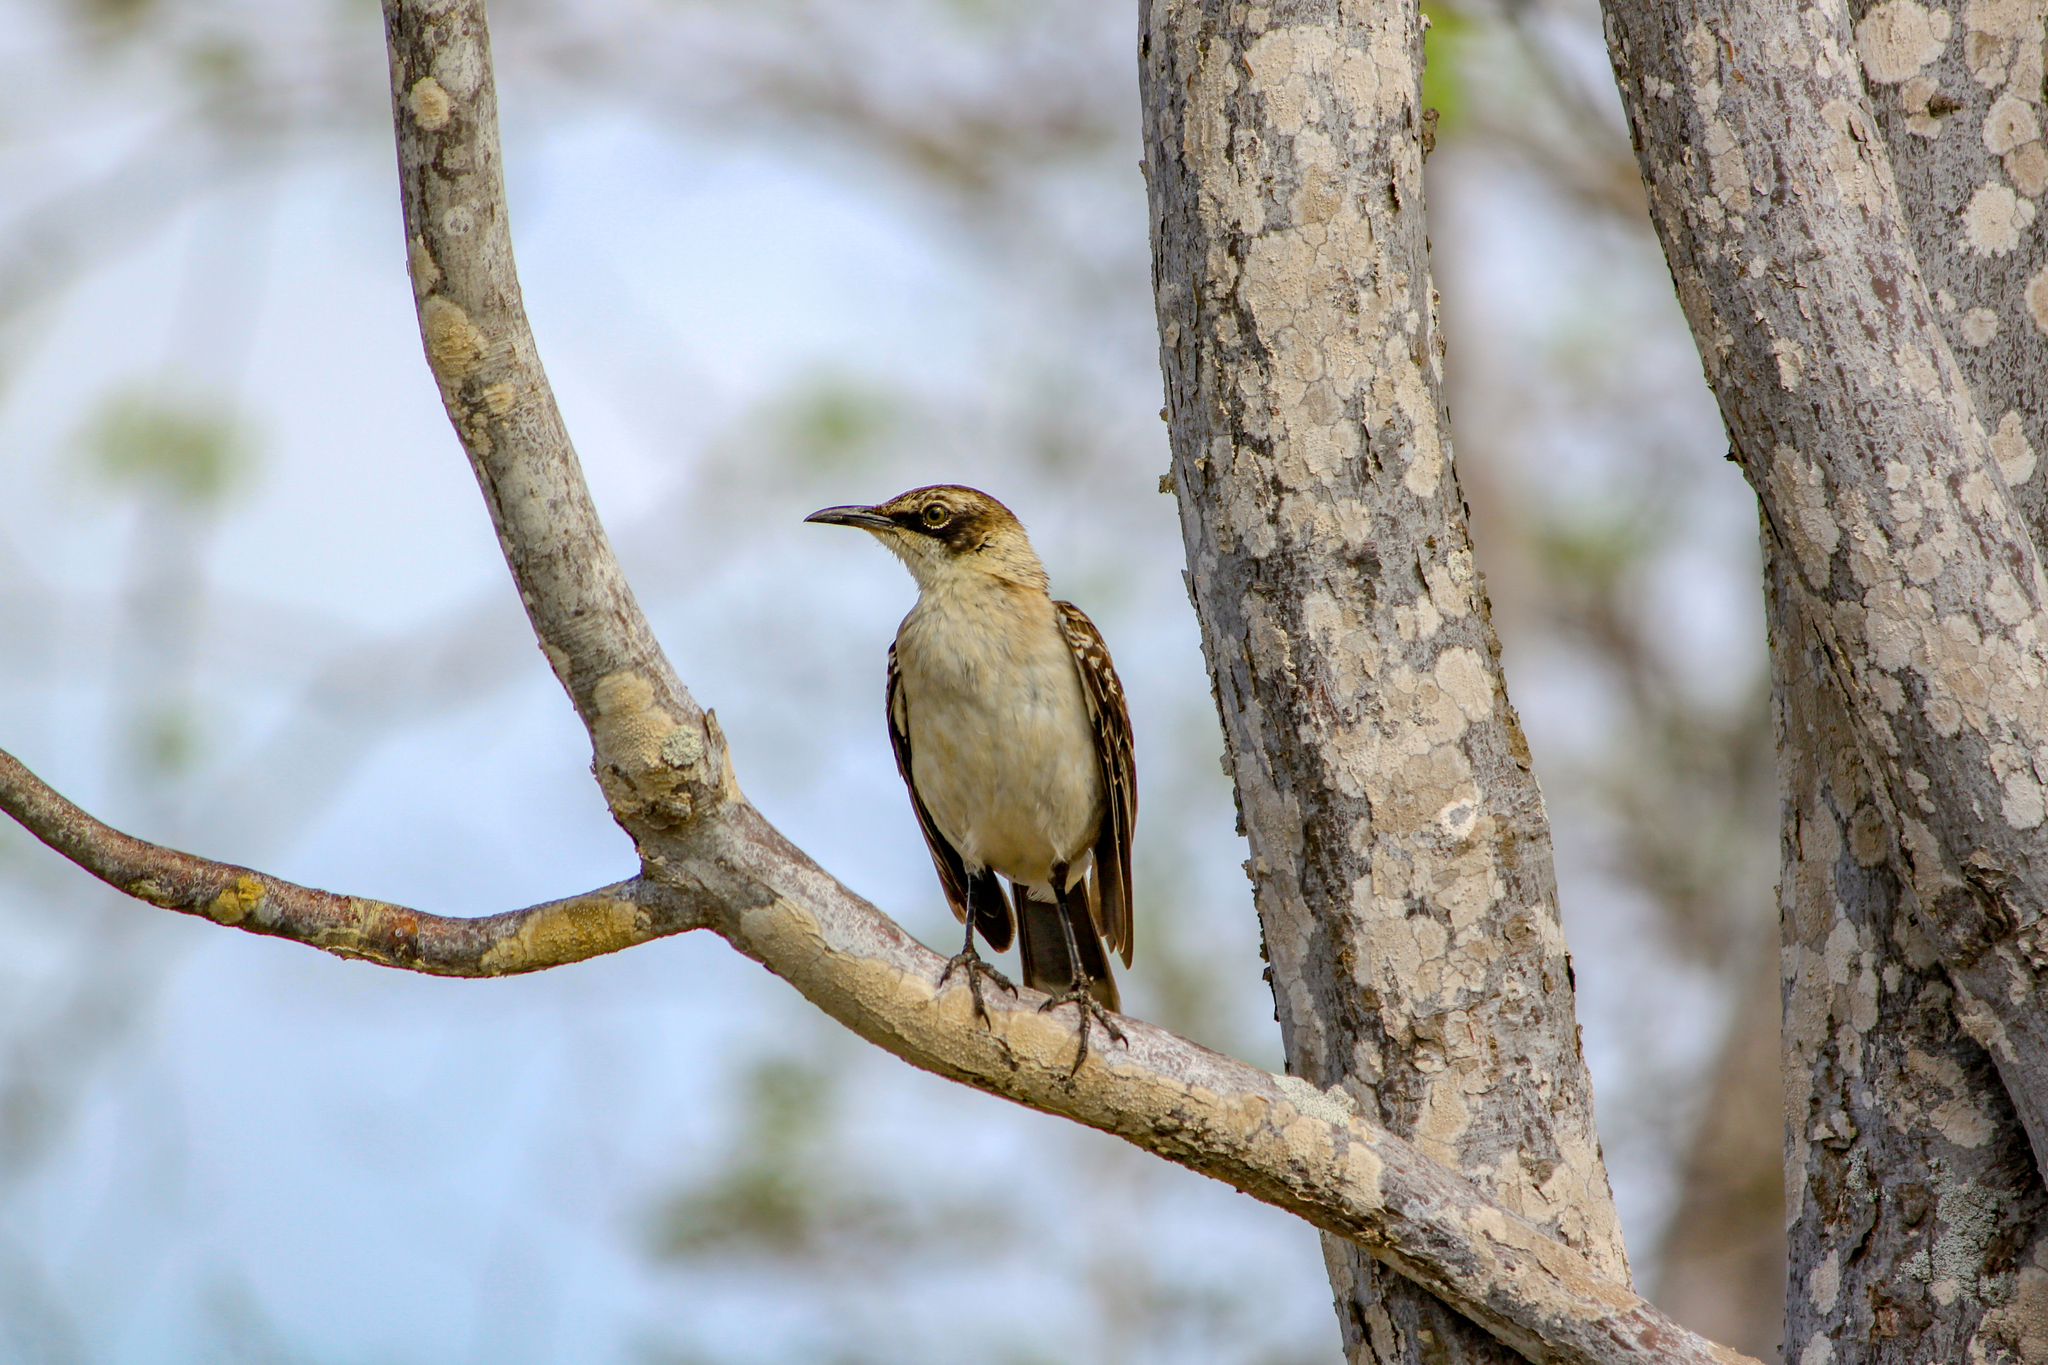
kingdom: Animalia
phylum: Chordata
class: Aves
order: Passeriformes
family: Mimidae
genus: Mimus
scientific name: Mimus parvulus
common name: Galapagos mockingbird
